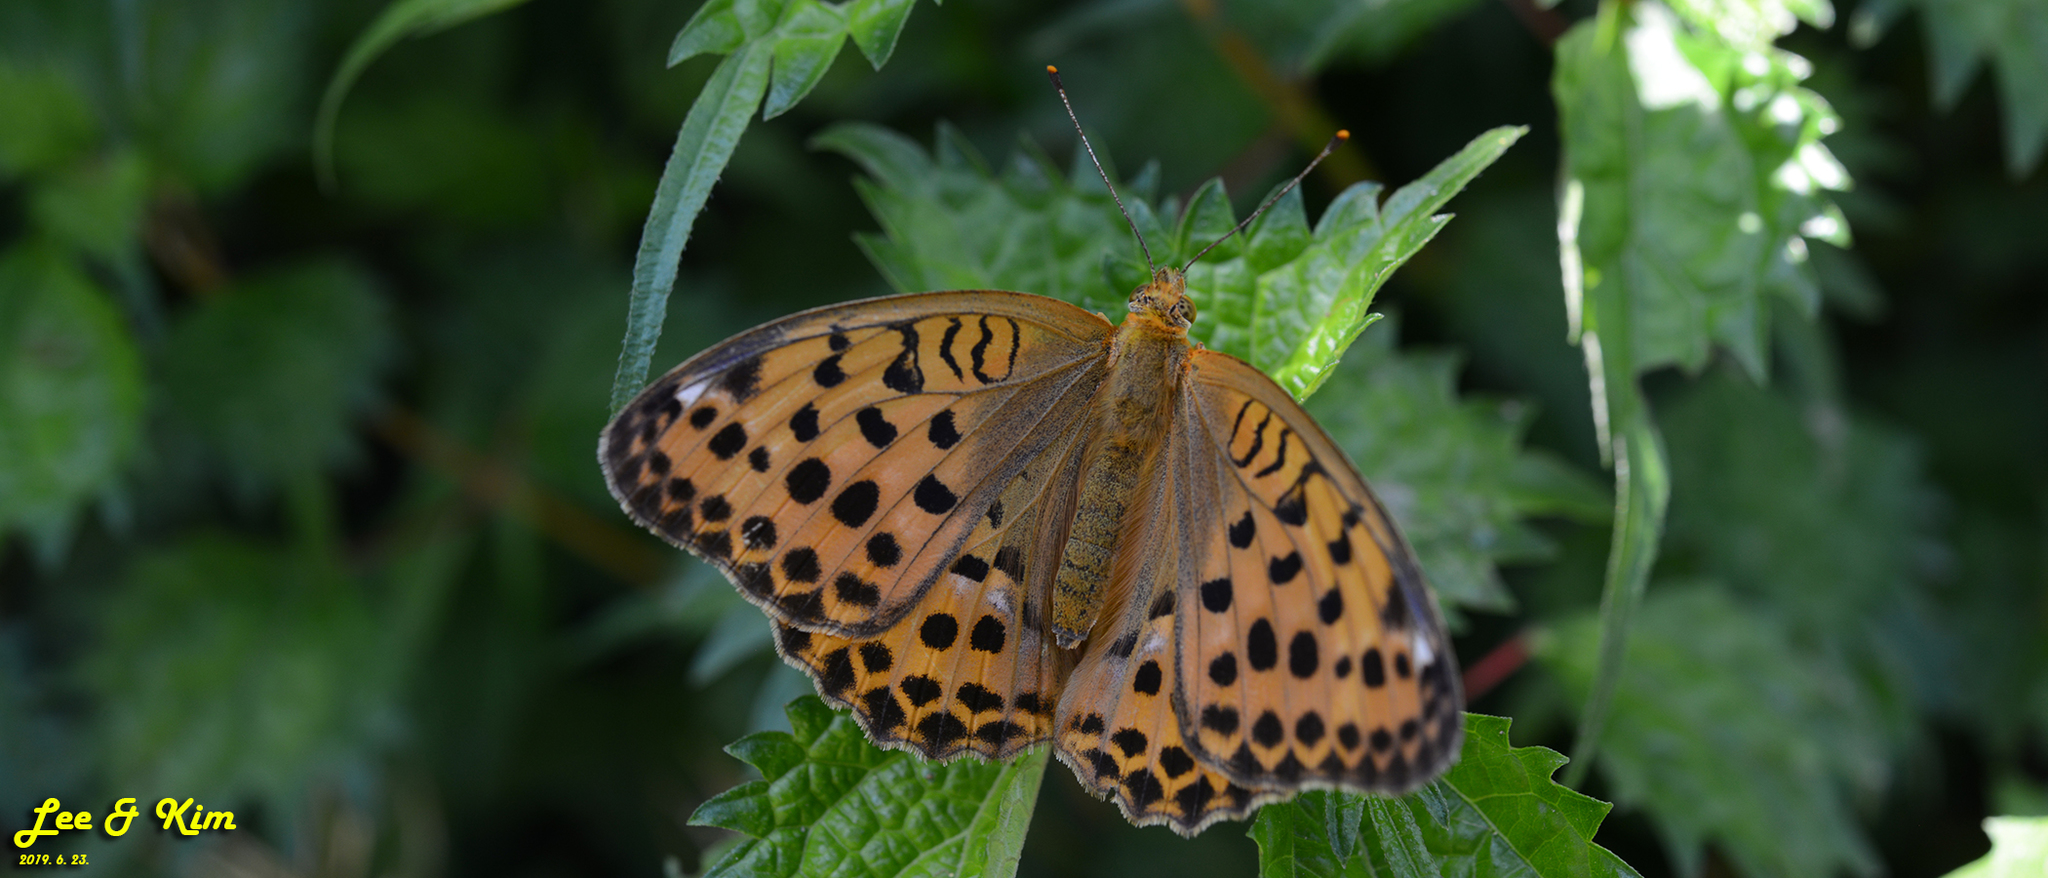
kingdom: Animalia
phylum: Arthropoda
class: Insecta
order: Lepidoptera
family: Nymphalidae
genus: Argyronome
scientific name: Argyronome laodice
